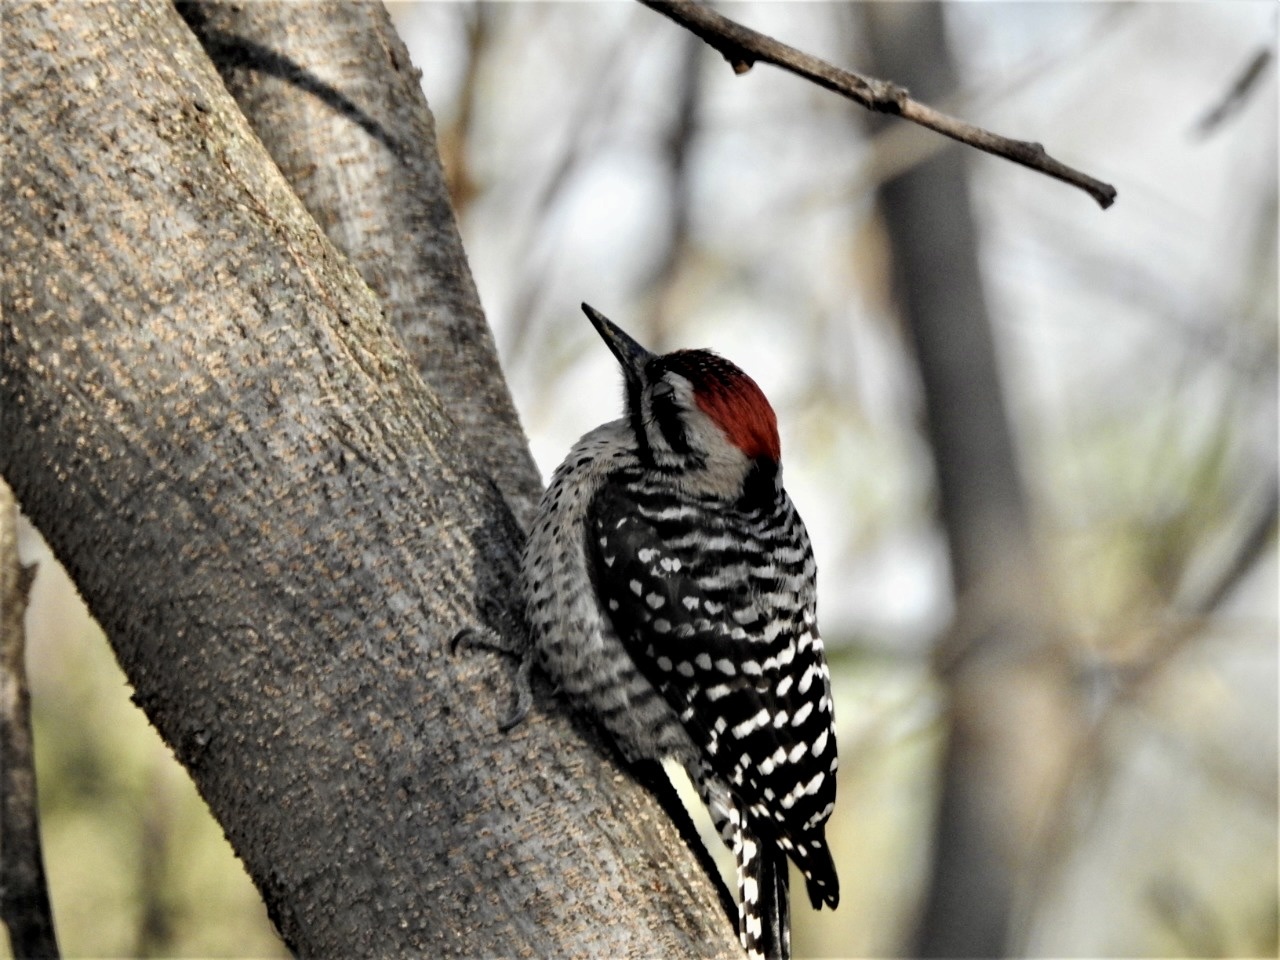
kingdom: Animalia
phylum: Chordata
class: Aves
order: Piciformes
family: Picidae
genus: Dryobates
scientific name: Dryobates scalaris
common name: Ladder-backed woodpecker
